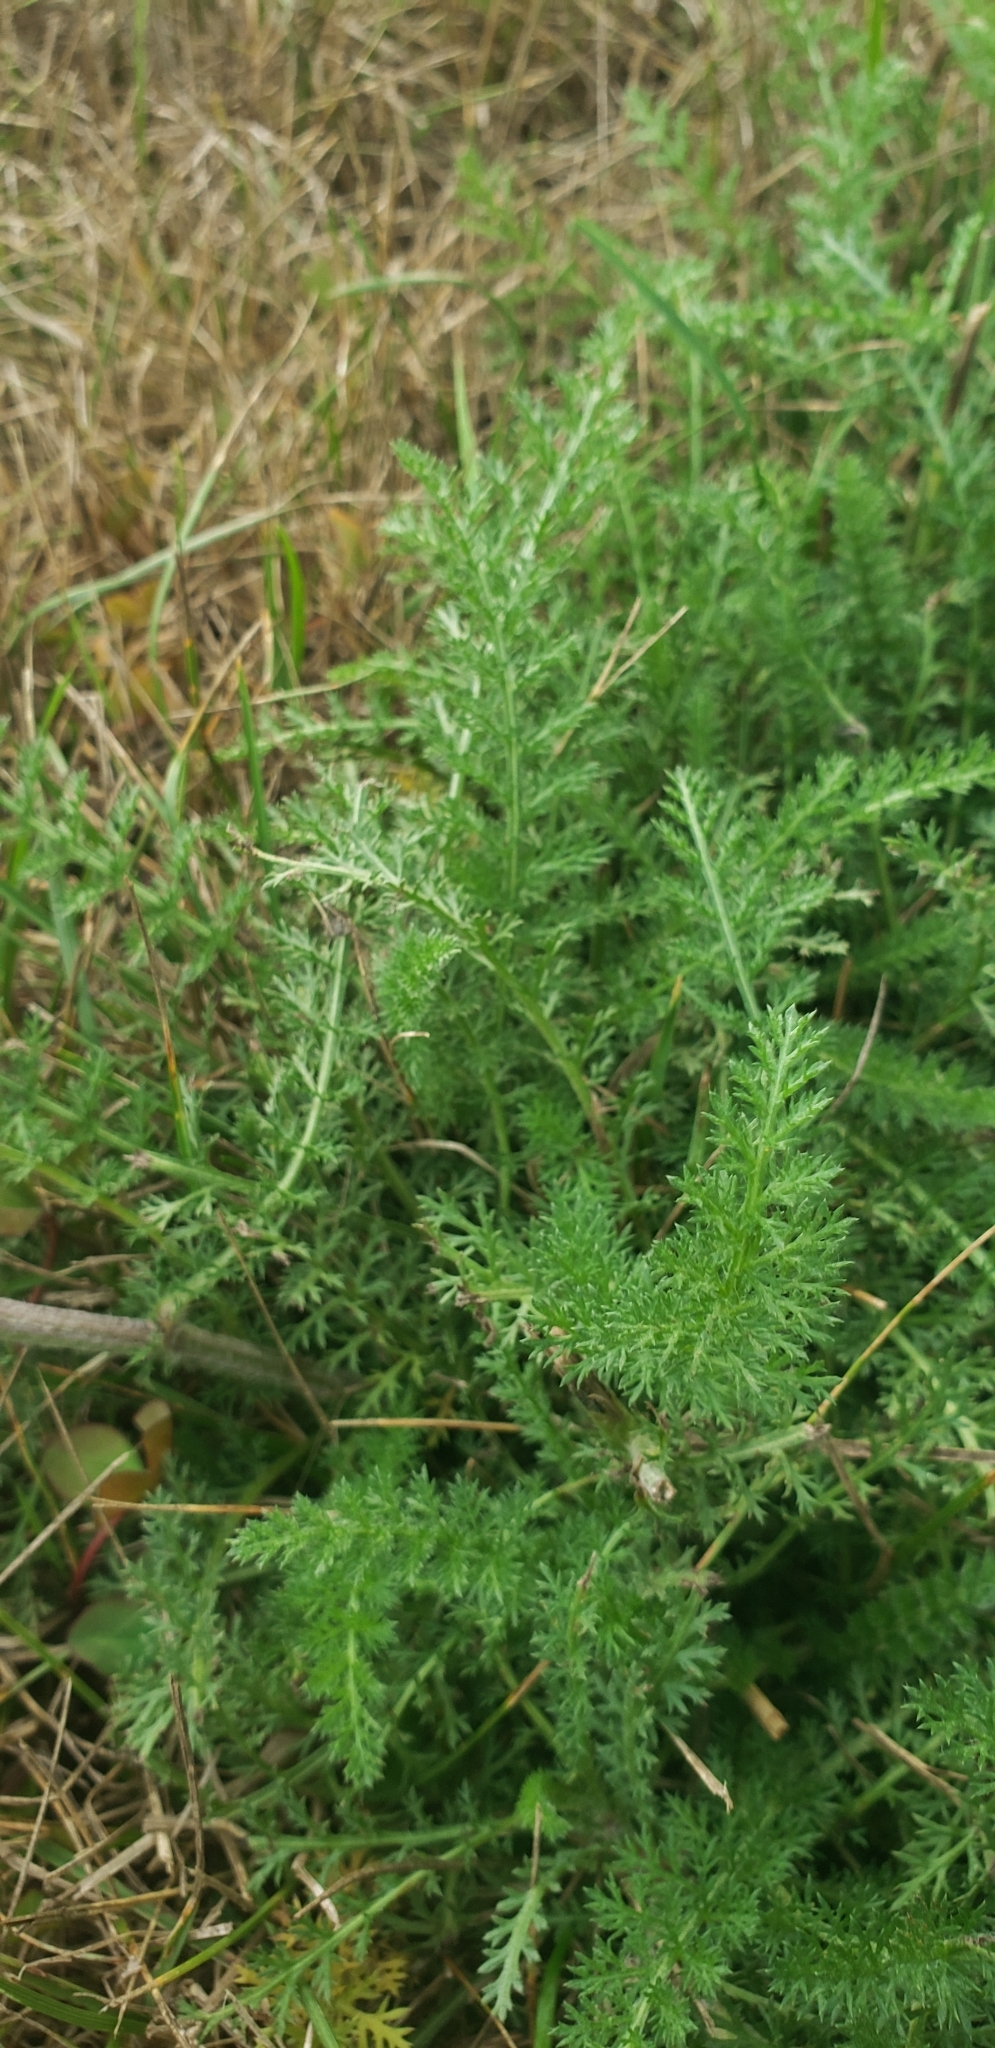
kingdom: Plantae
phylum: Tracheophyta
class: Magnoliopsida
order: Asterales
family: Asteraceae
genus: Achillea
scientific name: Achillea millefolium
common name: Yarrow
